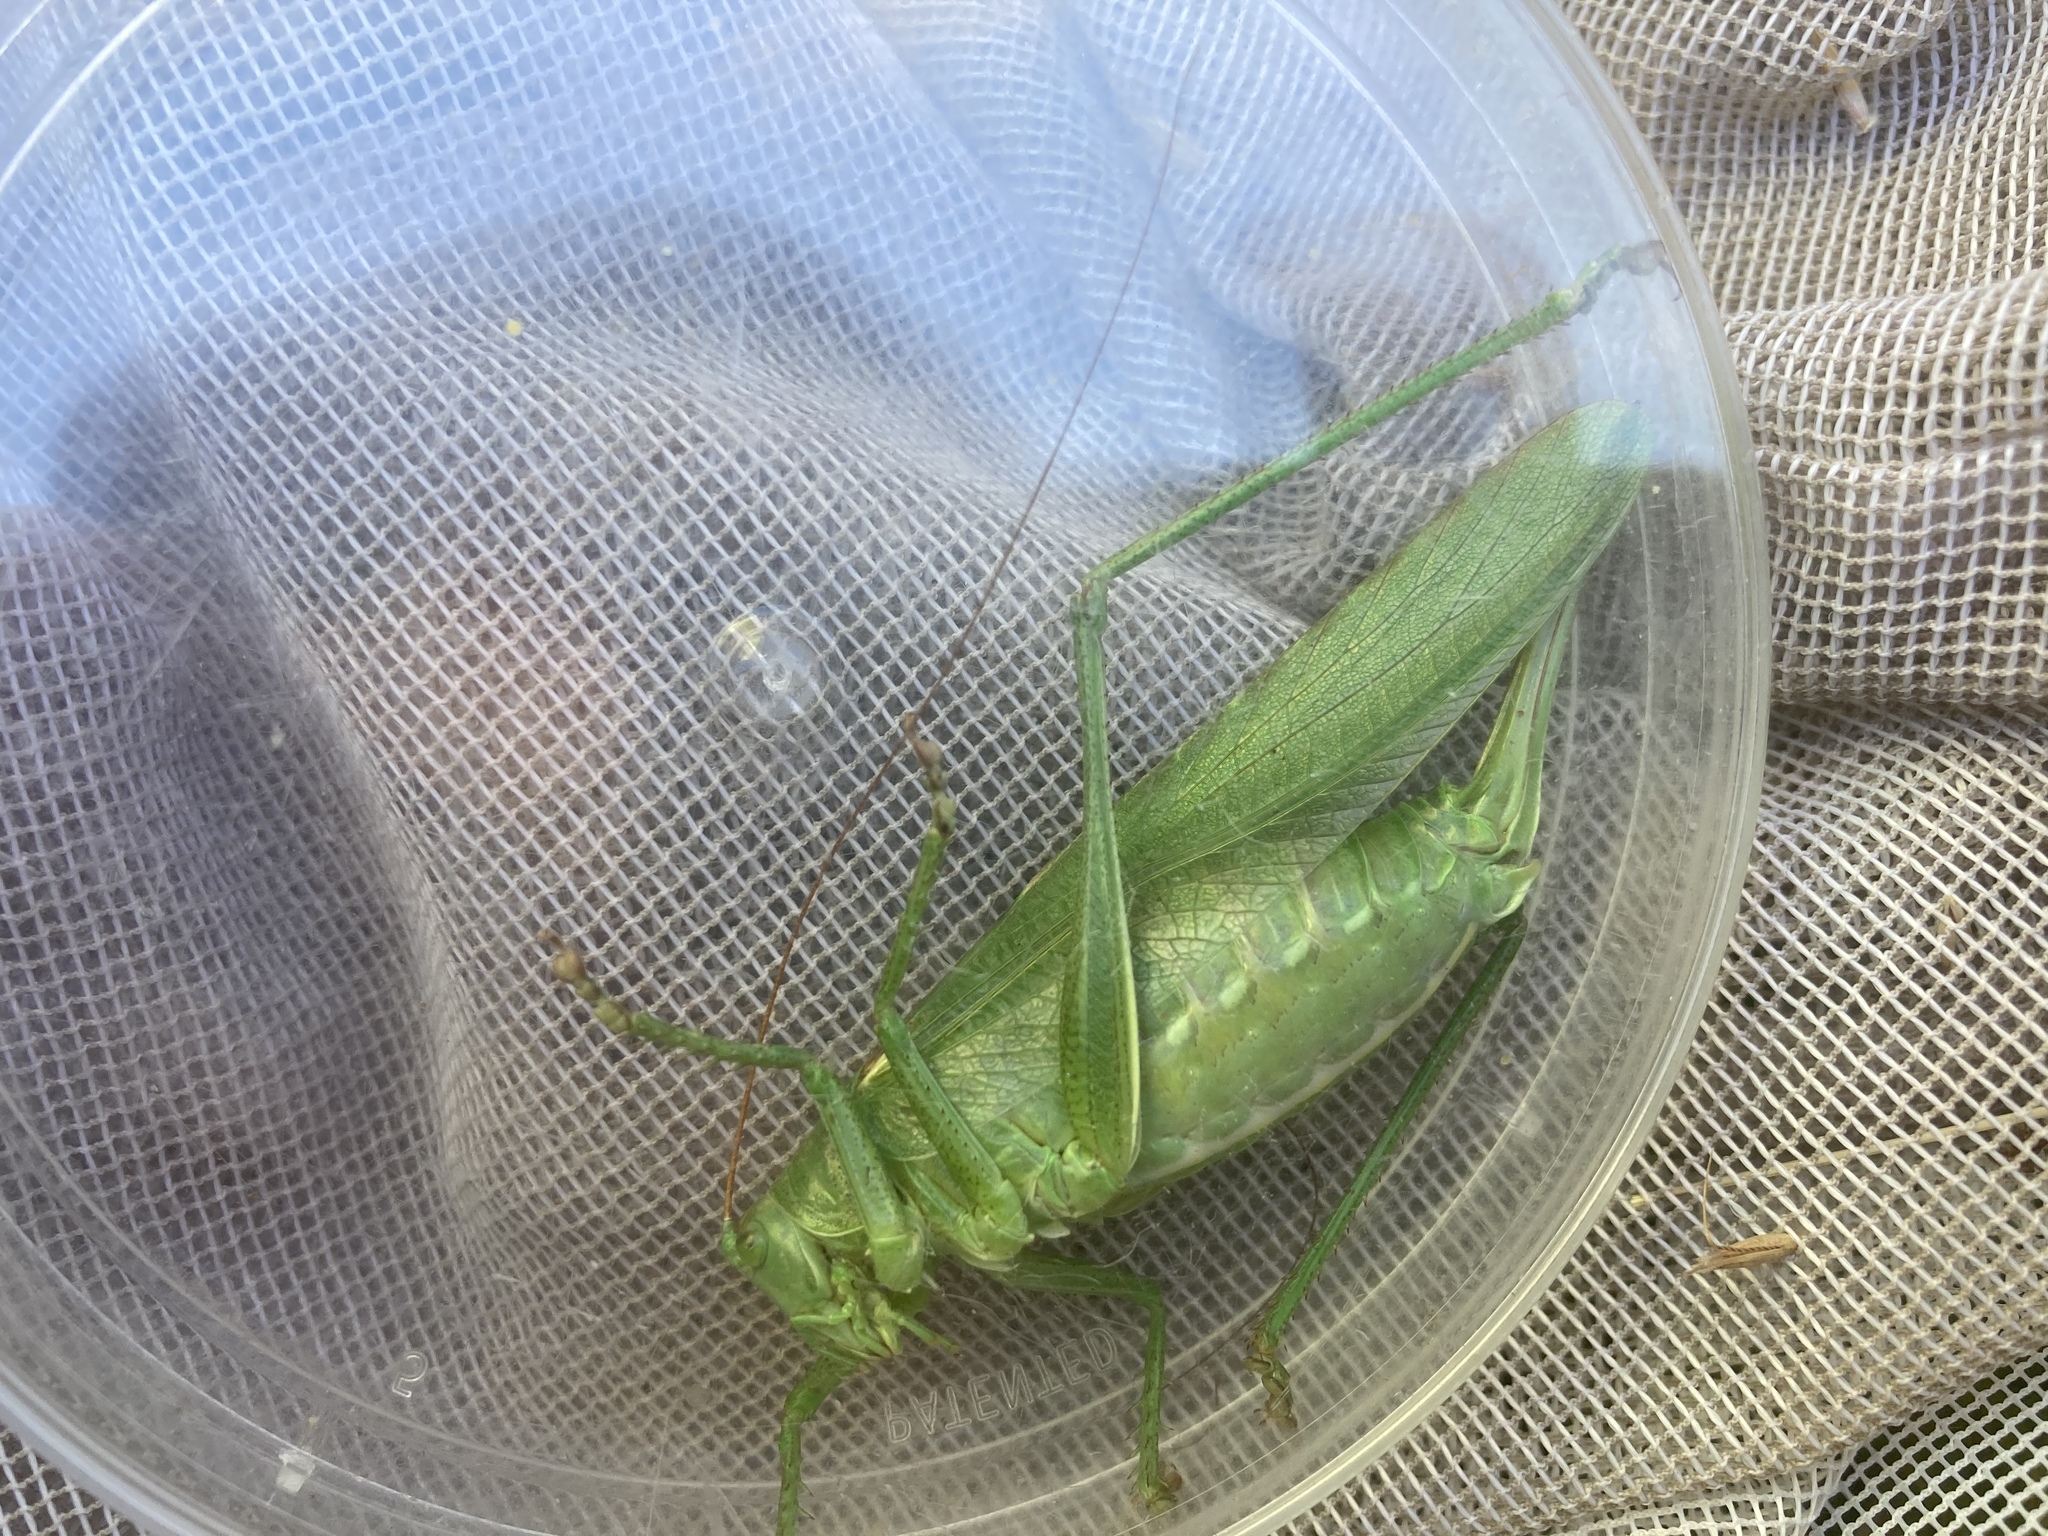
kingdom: Animalia
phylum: Arthropoda
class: Insecta
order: Orthoptera
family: Tettigoniidae
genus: Tettigonia
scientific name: Tettigonia viridissima
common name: Great green bush-cricket
